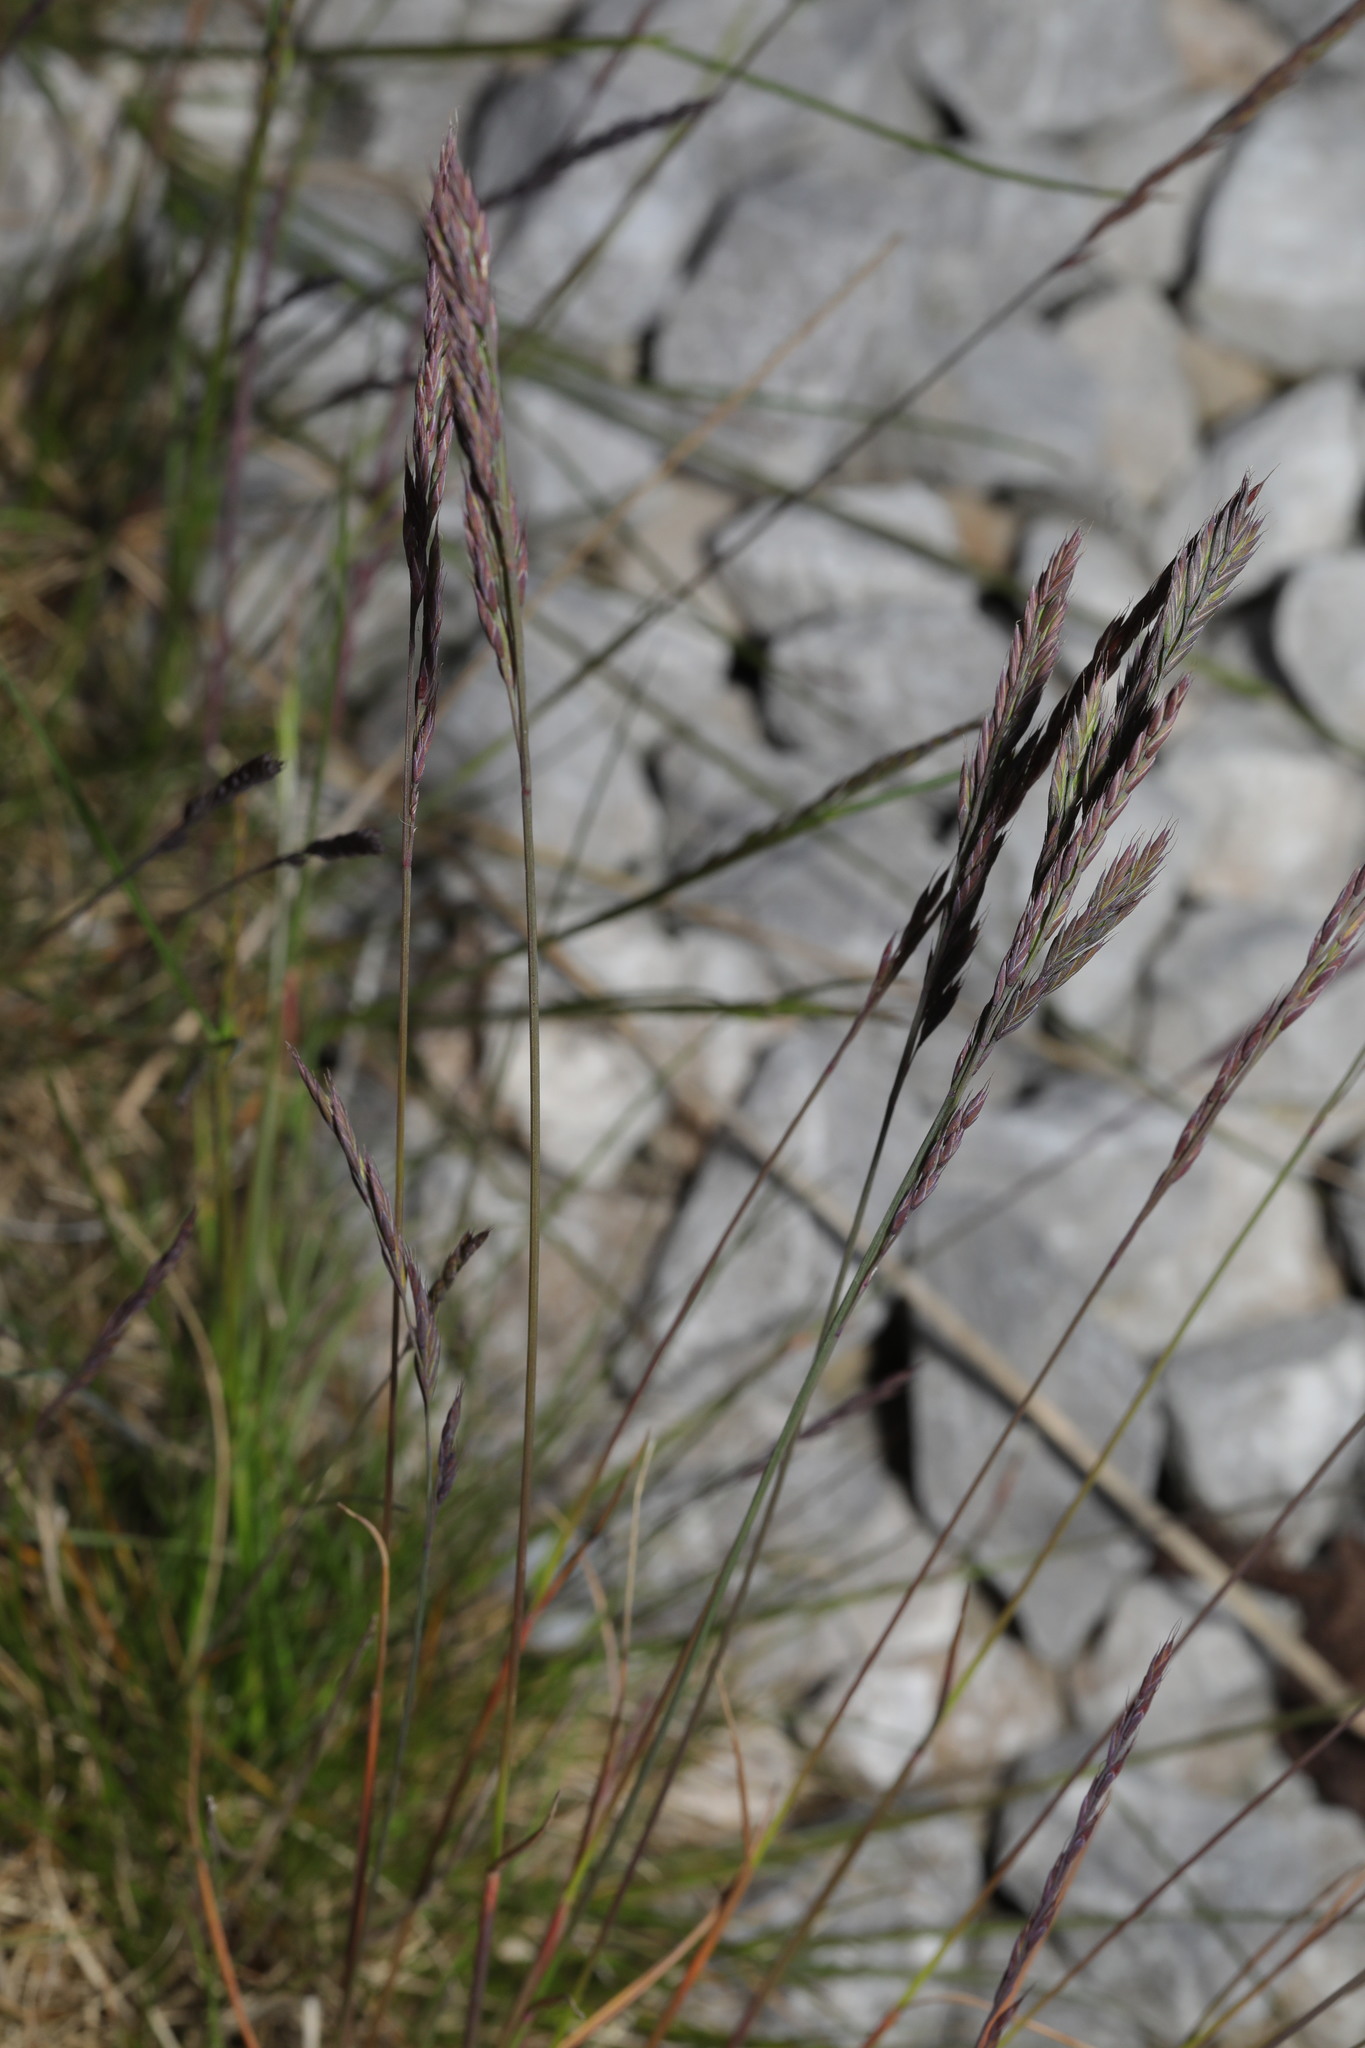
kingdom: Plantae
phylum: Tracheophyta
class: Liliopsida
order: Poales
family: Poaceae
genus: Festuca
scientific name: Festuca rubra
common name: Red fescue
